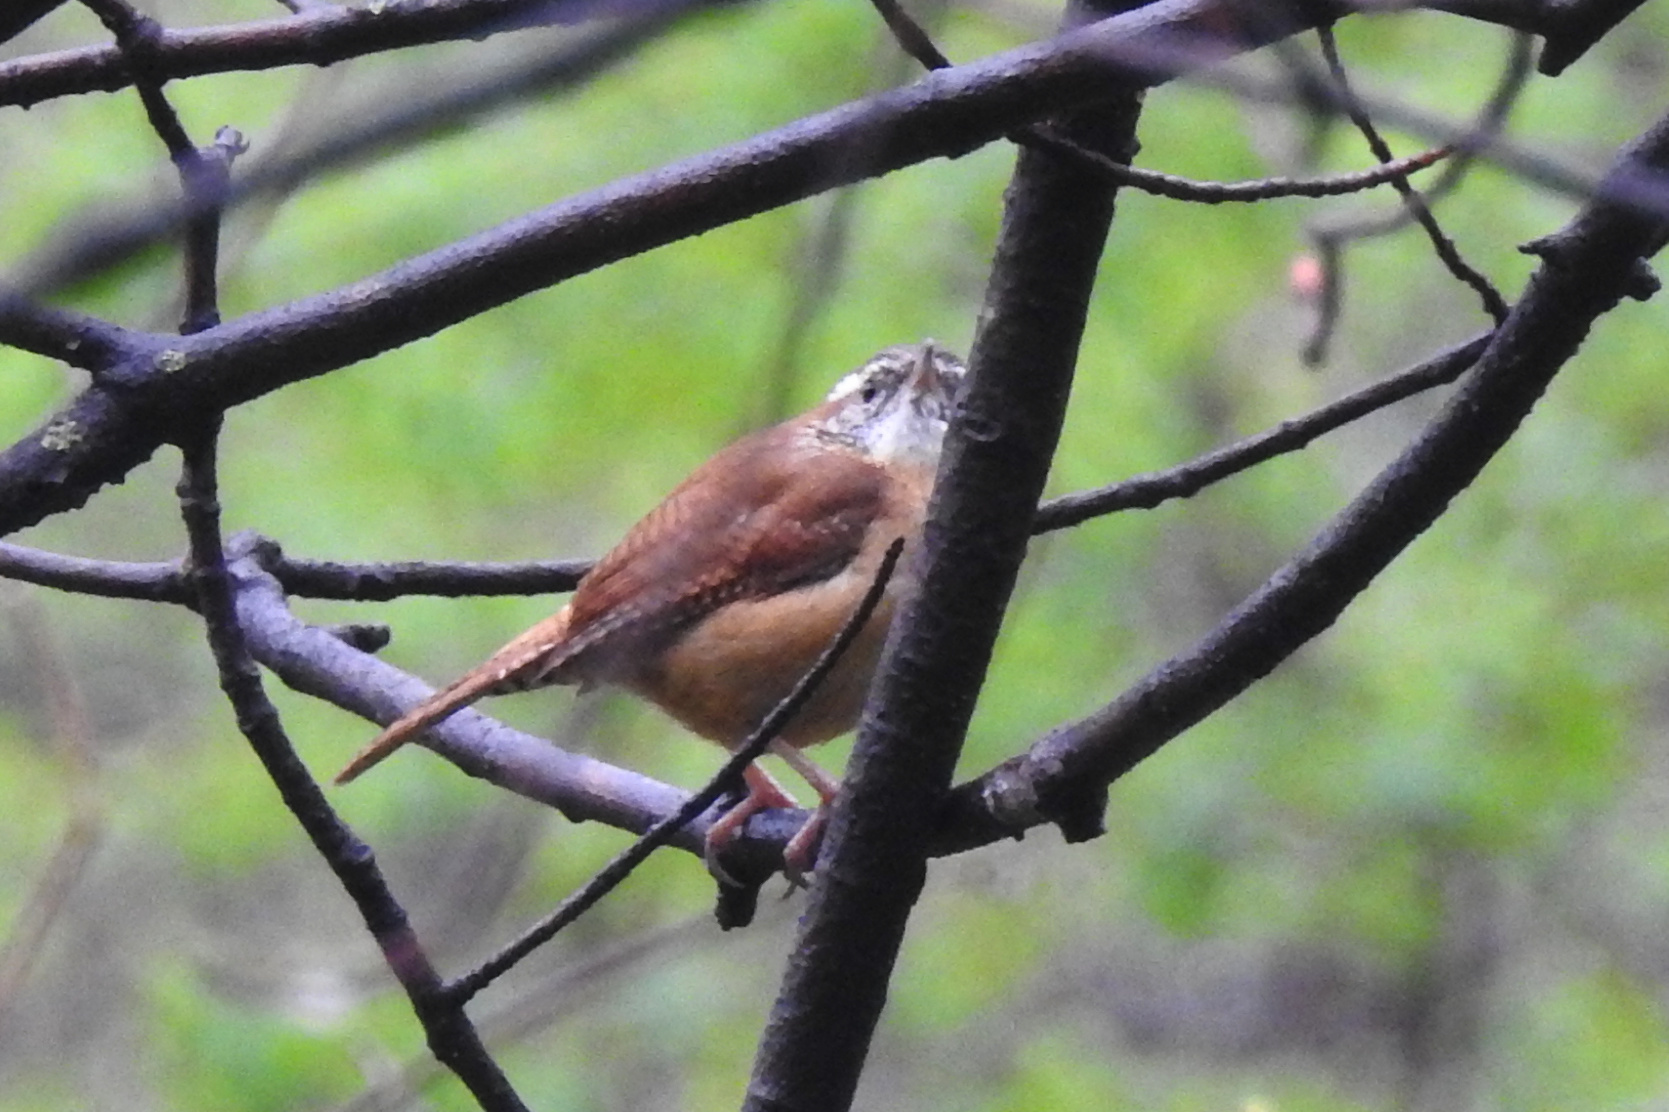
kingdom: Animalia
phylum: Chordata
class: Aves
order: Passeriformes
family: Troglodytidae
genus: Thryothorus
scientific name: Thryothorus ludovicianus
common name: Carolina wren
